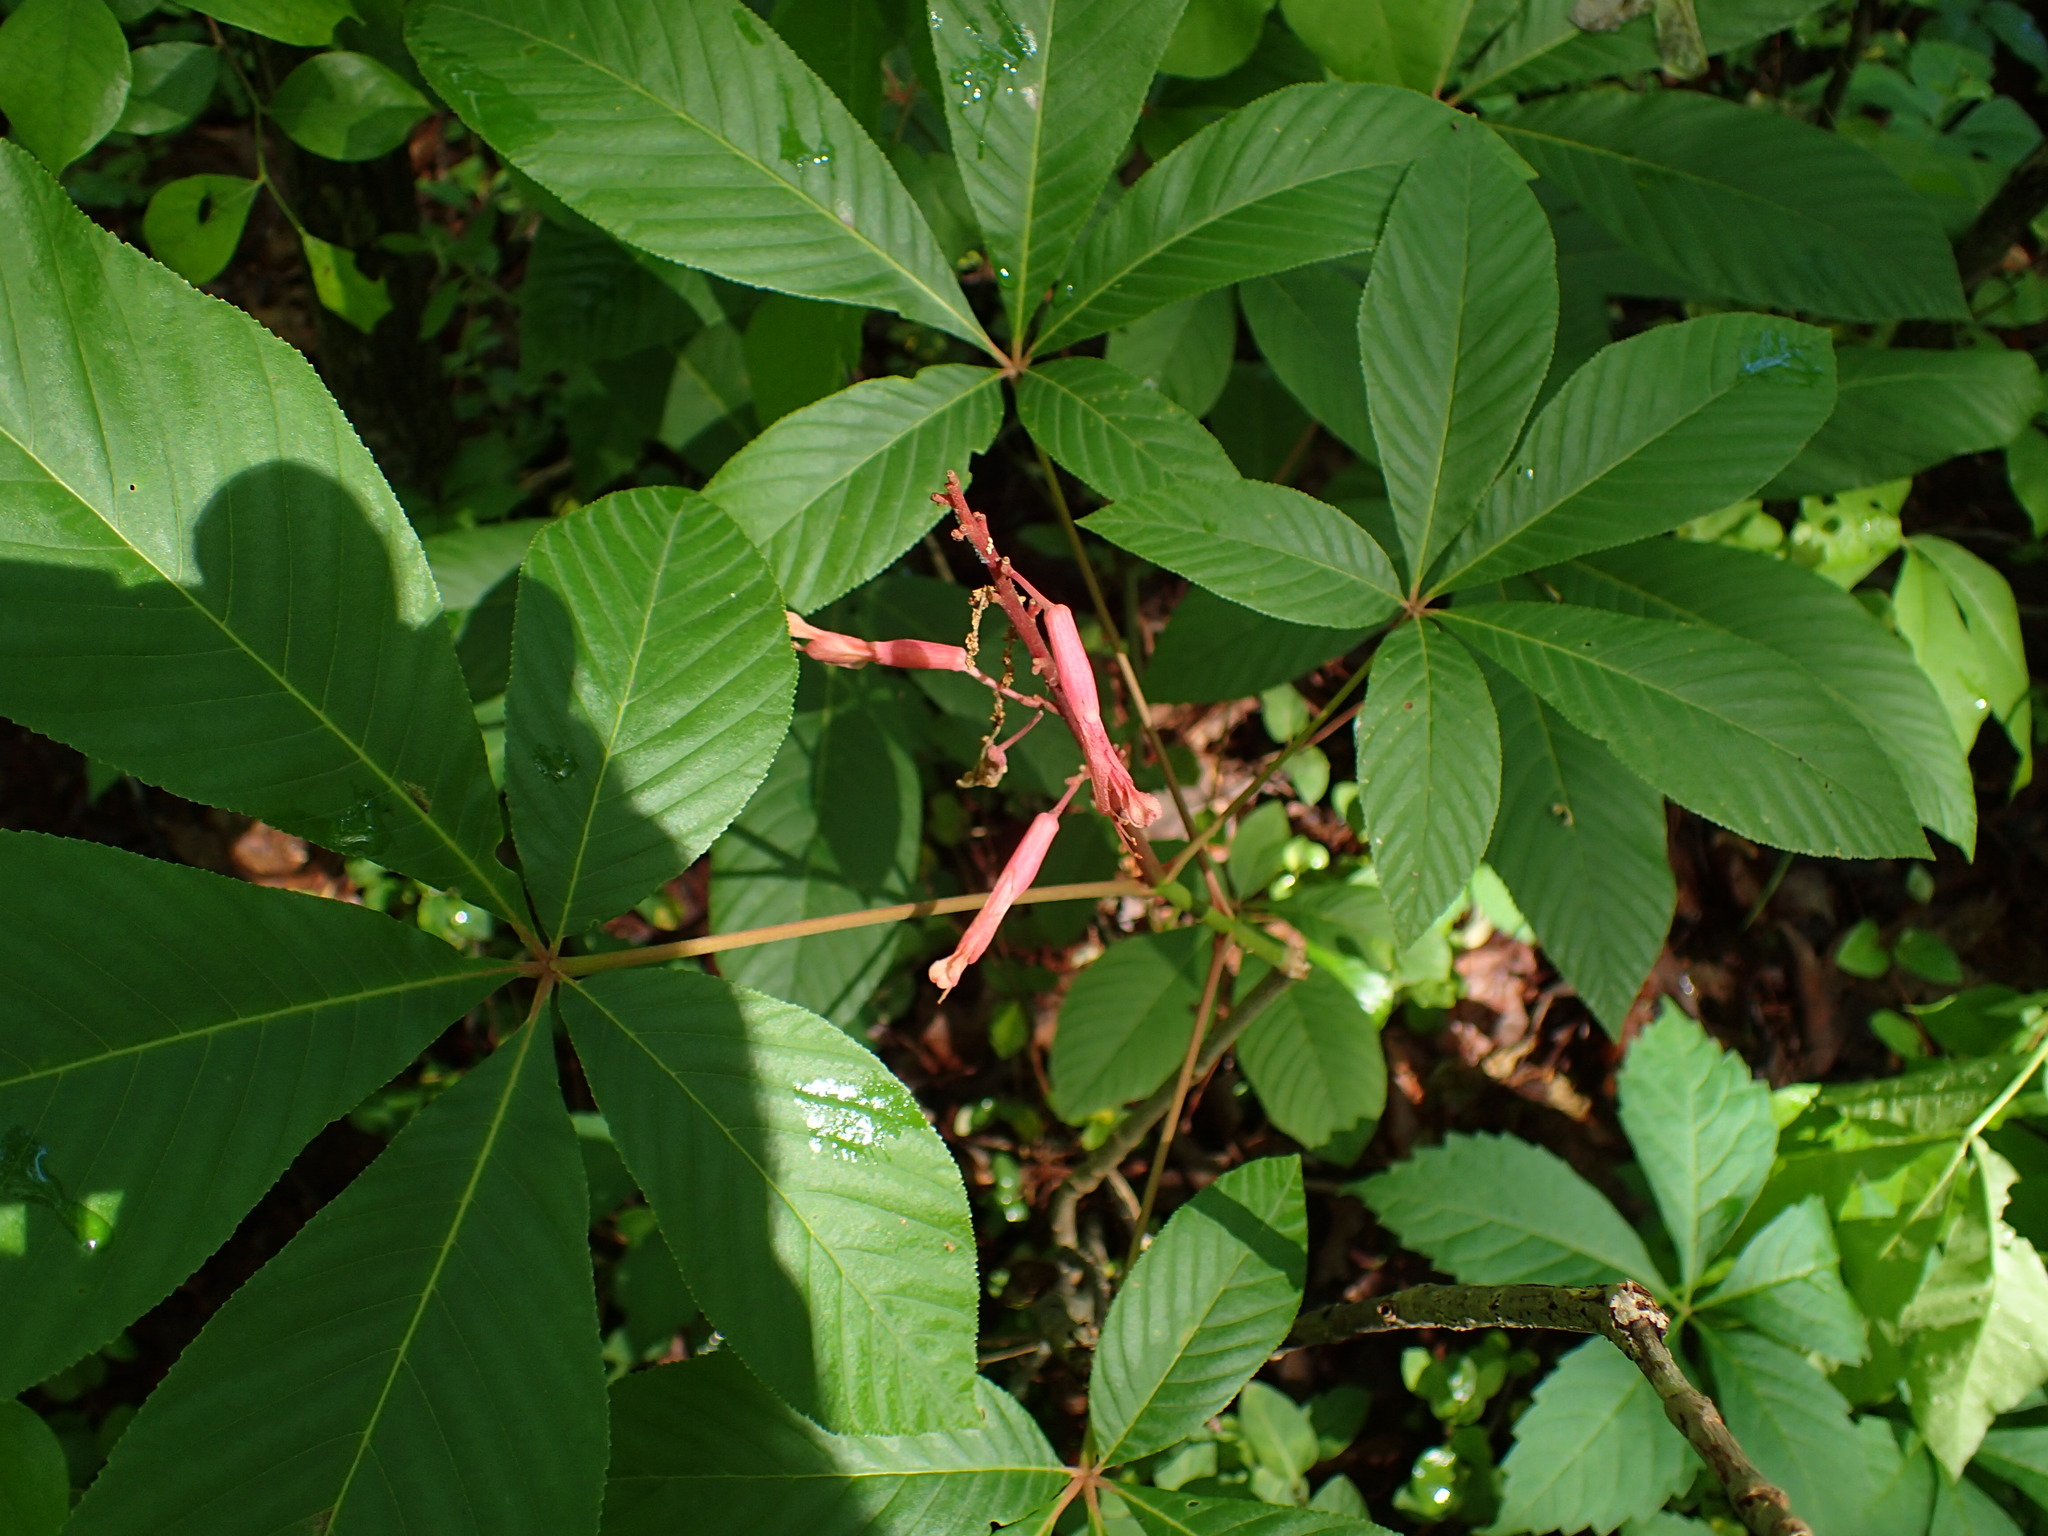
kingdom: Plantae
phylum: Tracheophyta
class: Magnoliopsida
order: Sapindales
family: Sapindaceae
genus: Aesculus
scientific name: Aesculus pavia
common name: Red buckeye
